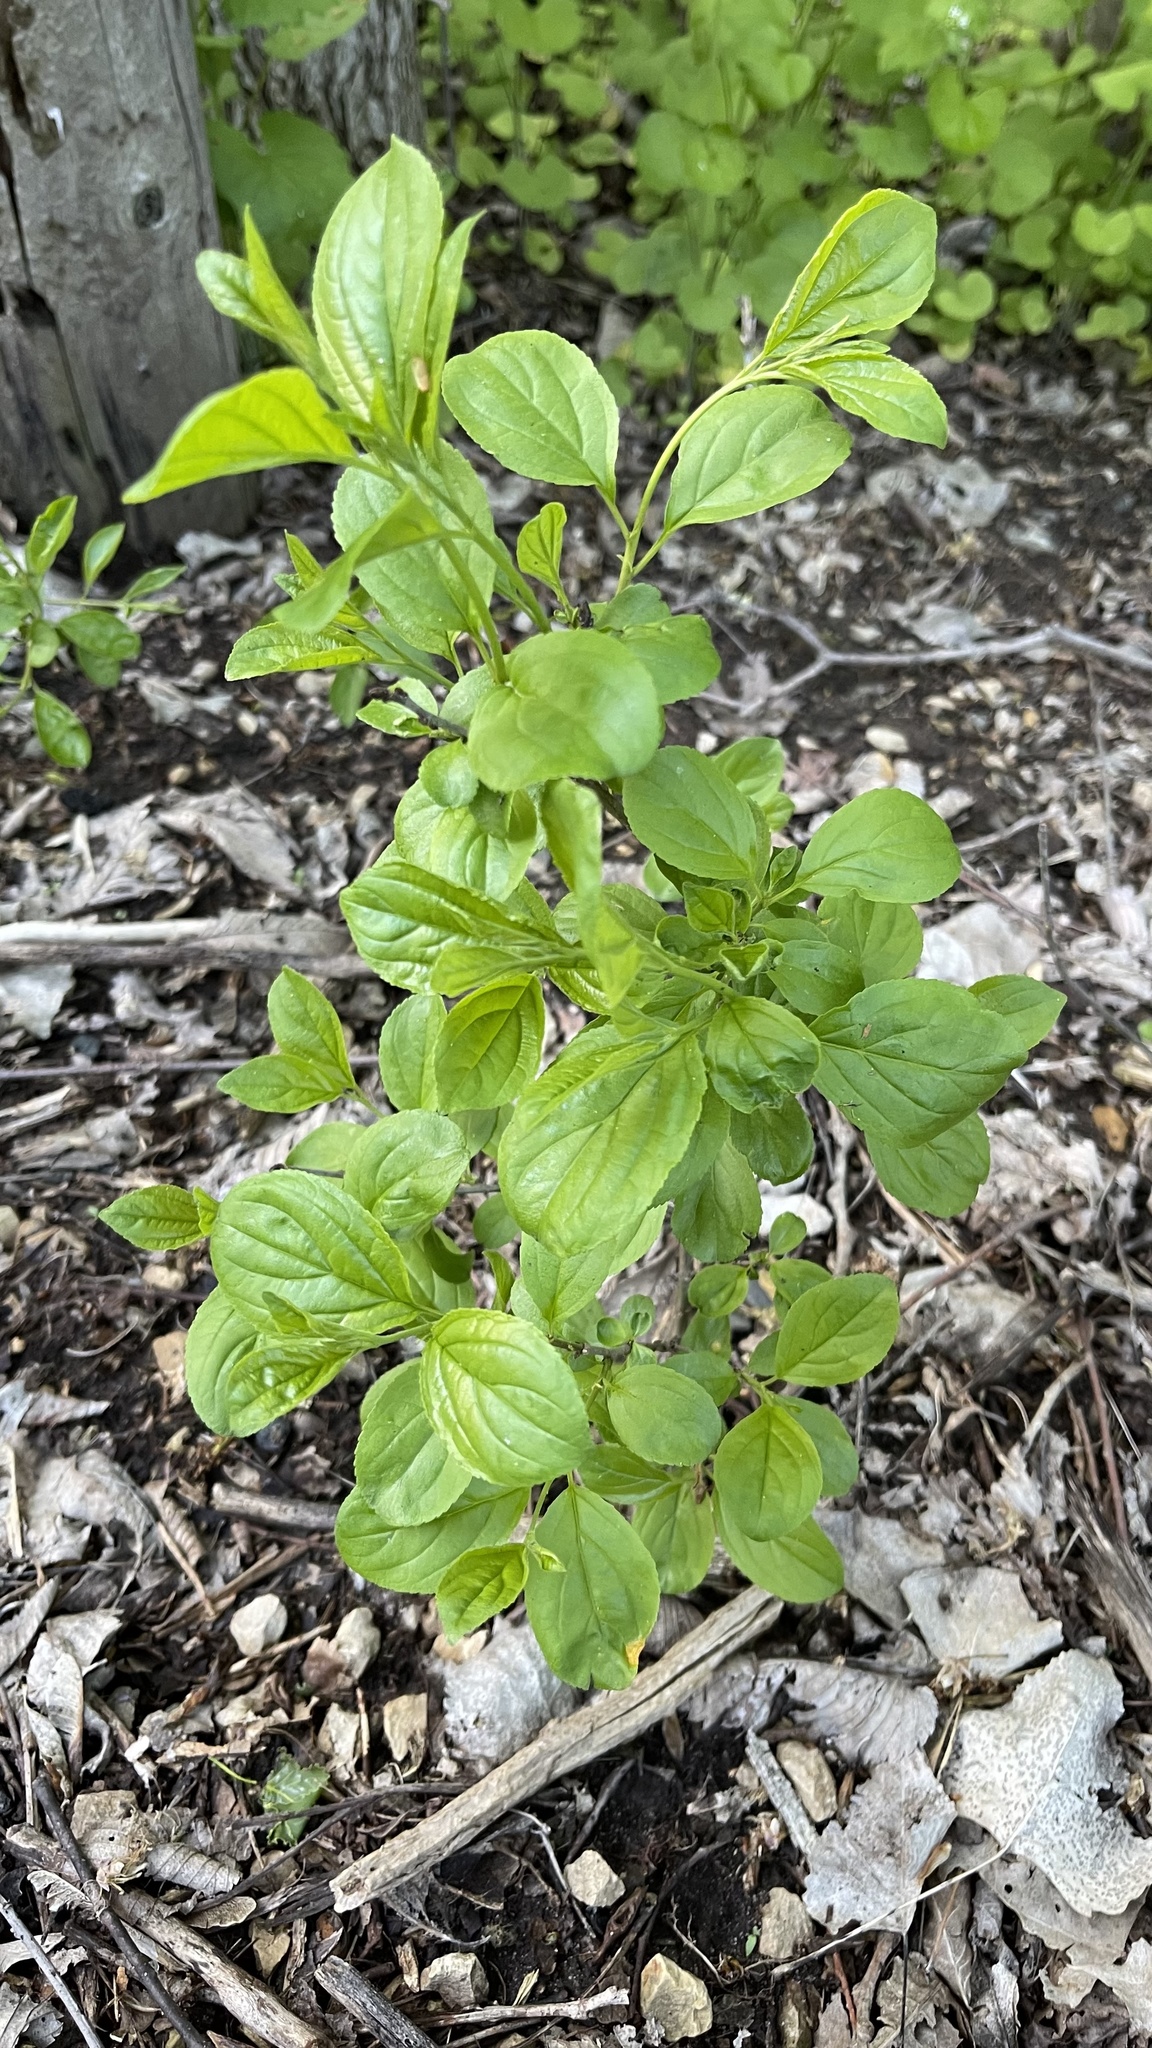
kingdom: Plantae
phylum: Tracheophyta
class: Magnoliopsida
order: Rosales
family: Rhamnaceae
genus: Rhamnus
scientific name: Rhamnus cathartica
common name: Common buckthorn
